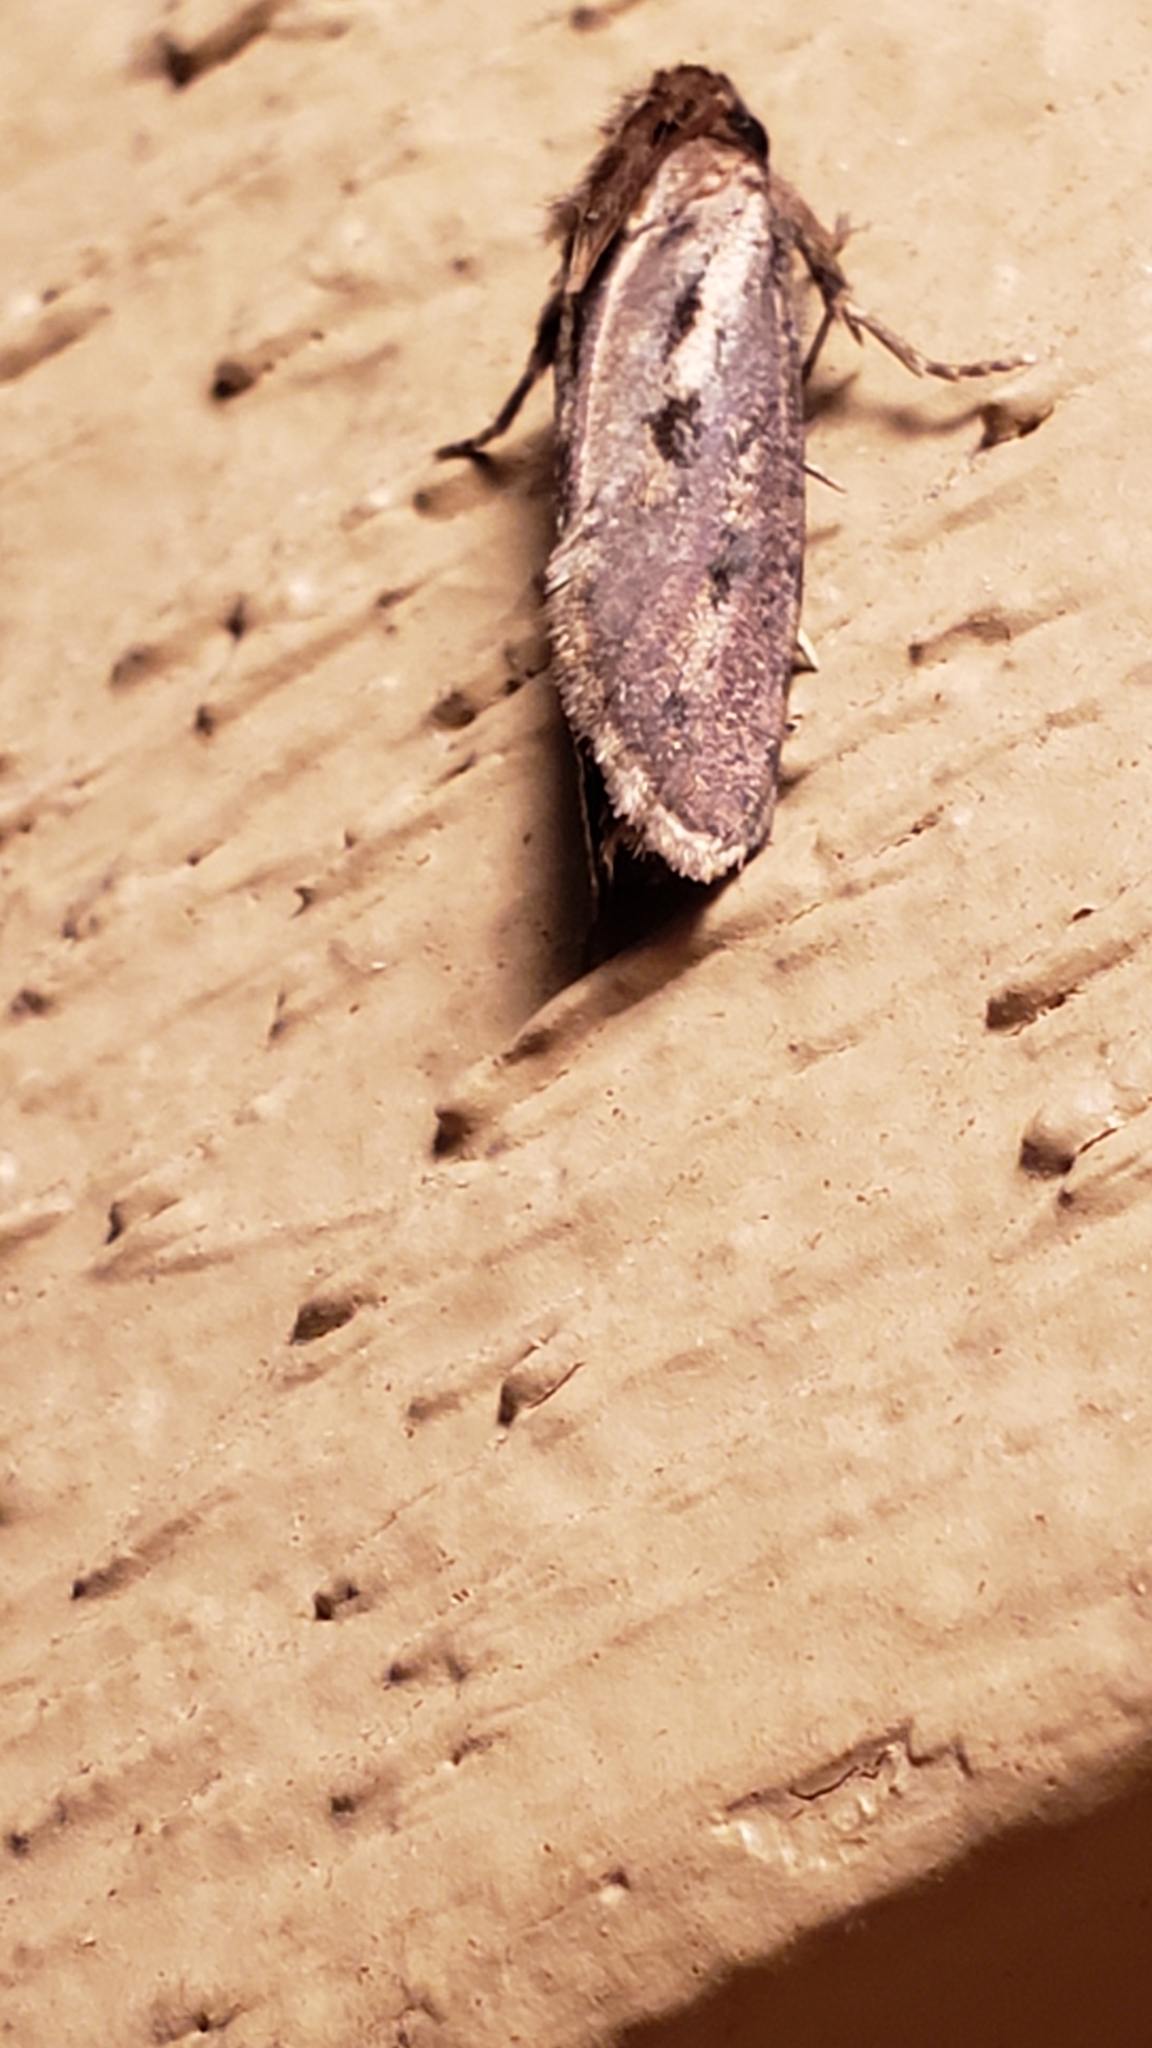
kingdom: Animalia
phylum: Arthropoda
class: Insecta
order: Lepidoptera
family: Tineidae
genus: Acrolophus
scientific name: Acrolophus popeanella
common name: Clemens' grass tubeworm moth
